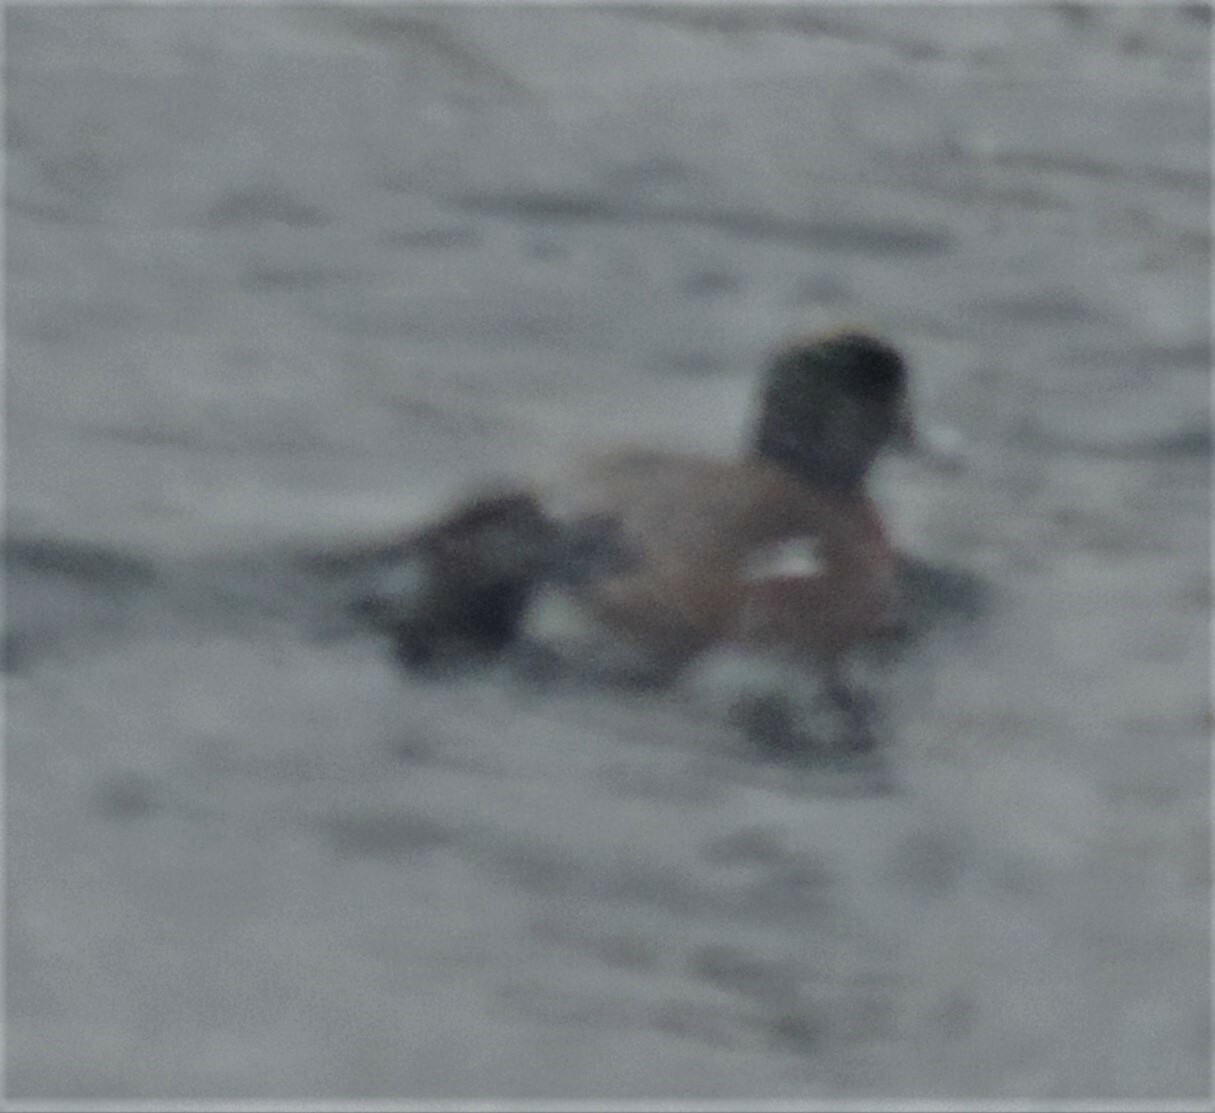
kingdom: Animalia
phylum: Chordata
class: Aves
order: Anseriformes
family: Anatidae
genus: Mareca
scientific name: Mareca americana
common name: American wigeon
